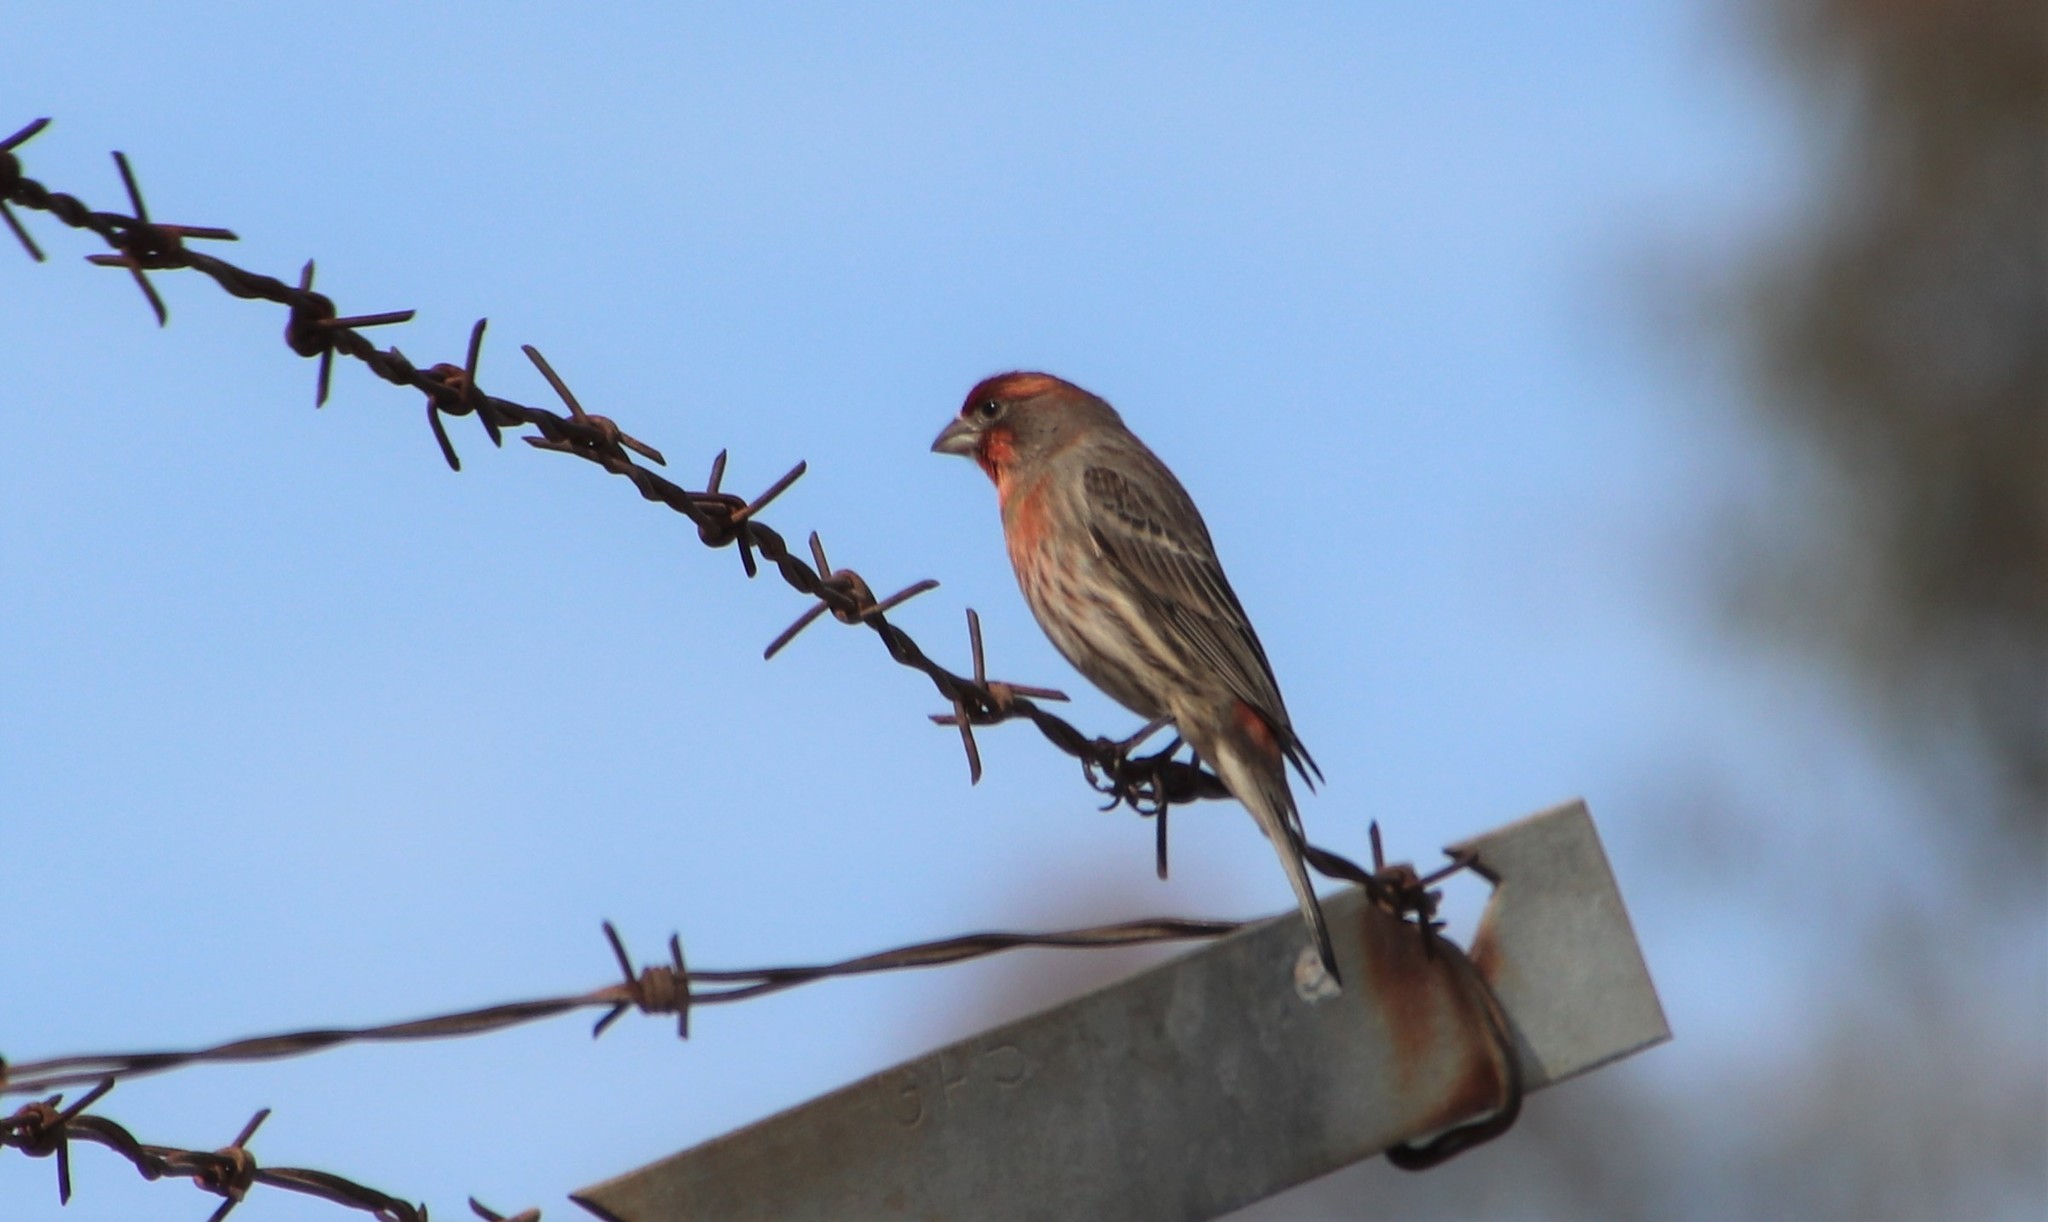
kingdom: Animalia
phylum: Chordata
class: Aves
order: Passeriformes
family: Fringillidae
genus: Haemorhous
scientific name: Haemorhous mexicanus
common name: House finch
